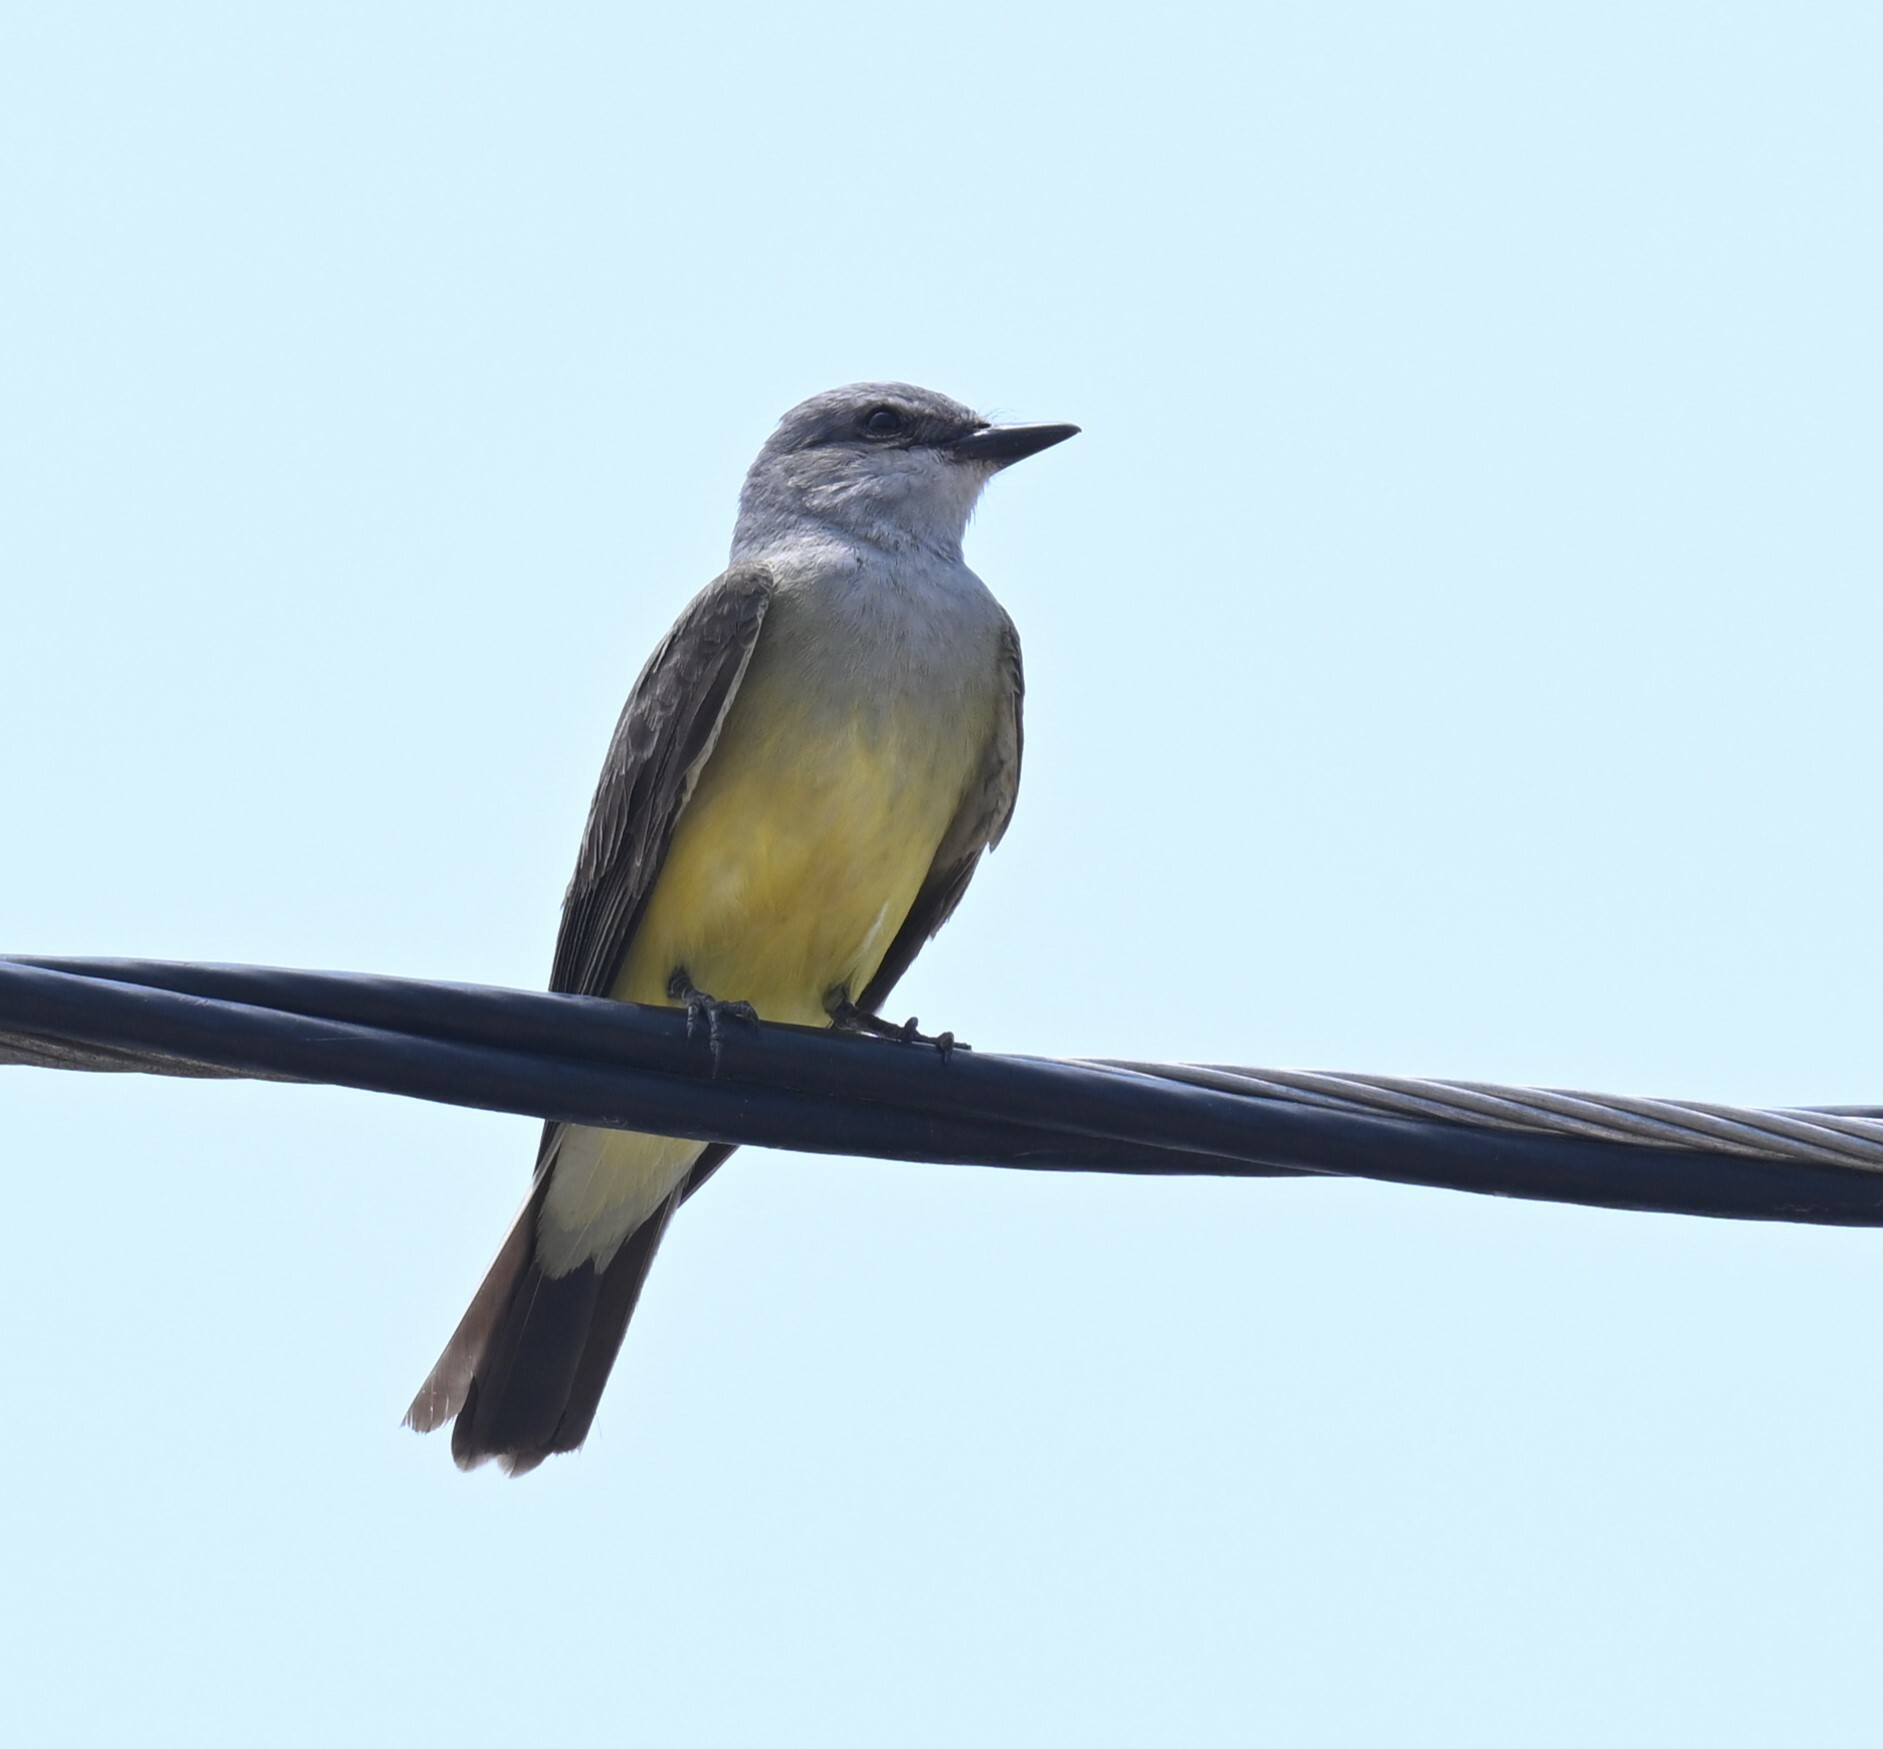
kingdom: Animalia
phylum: Chordata
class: Aves
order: Passeriformes
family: Tyrannidae
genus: Tyrannus
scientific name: Tyrannus verticalis
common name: Western kingbird
